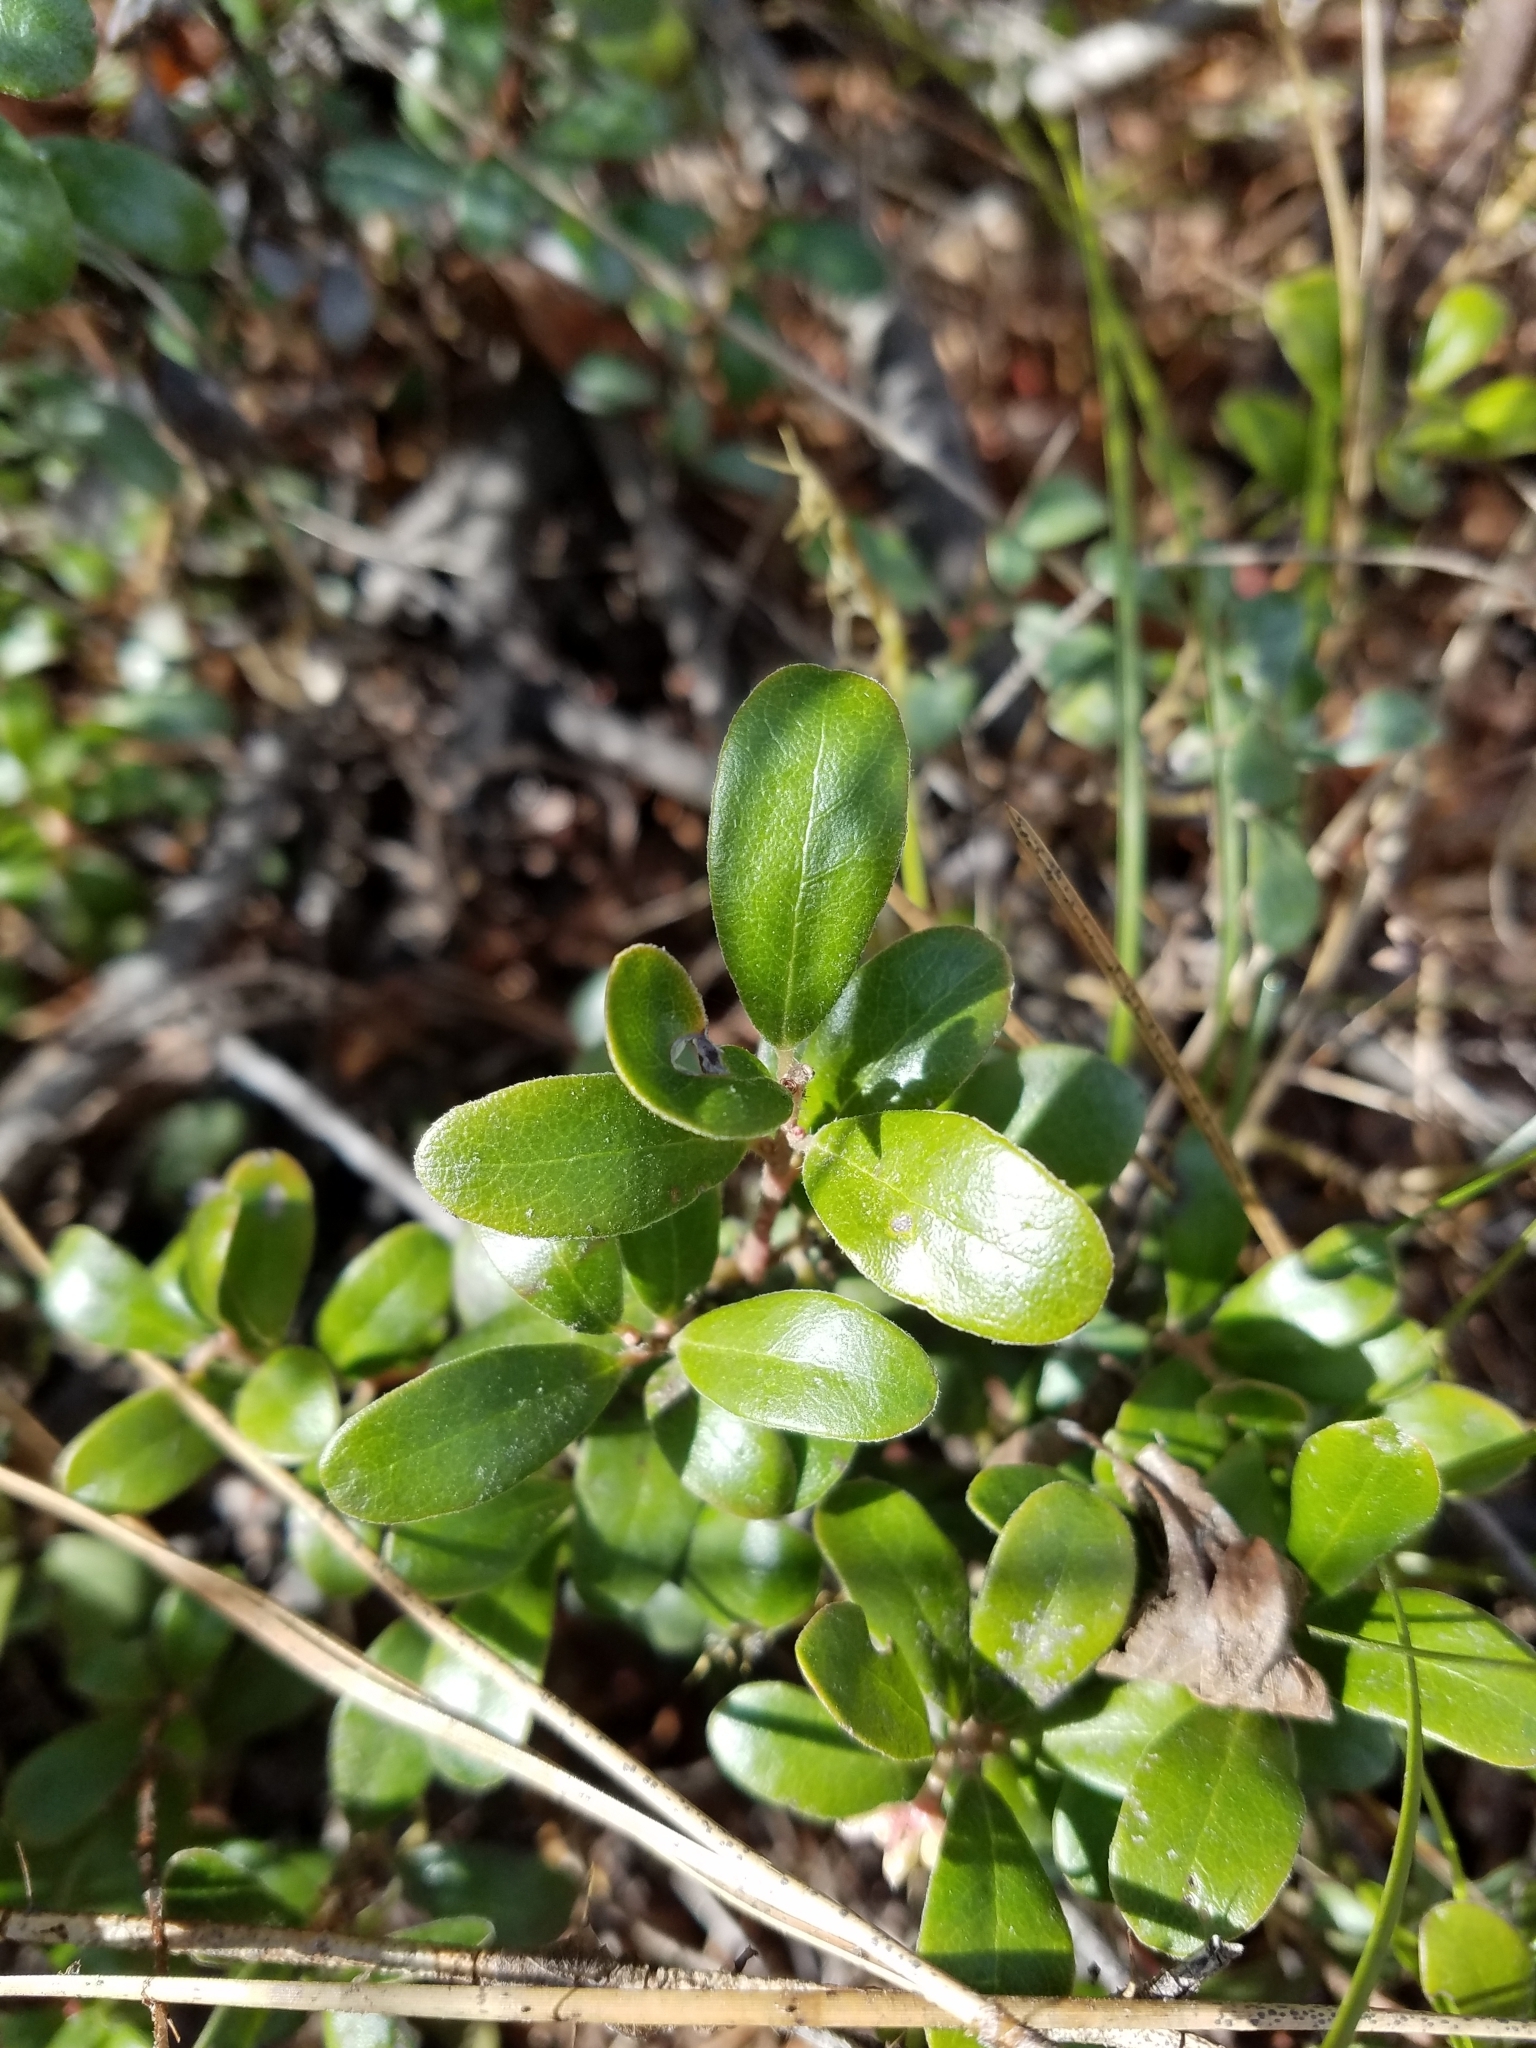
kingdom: Plantae
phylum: Tracheophyta
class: Magnoliopsida
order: Ericales
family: Ericaceae
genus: Arctostaphylos
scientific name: Arctostaphylos uva-ursi
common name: Bearberry
